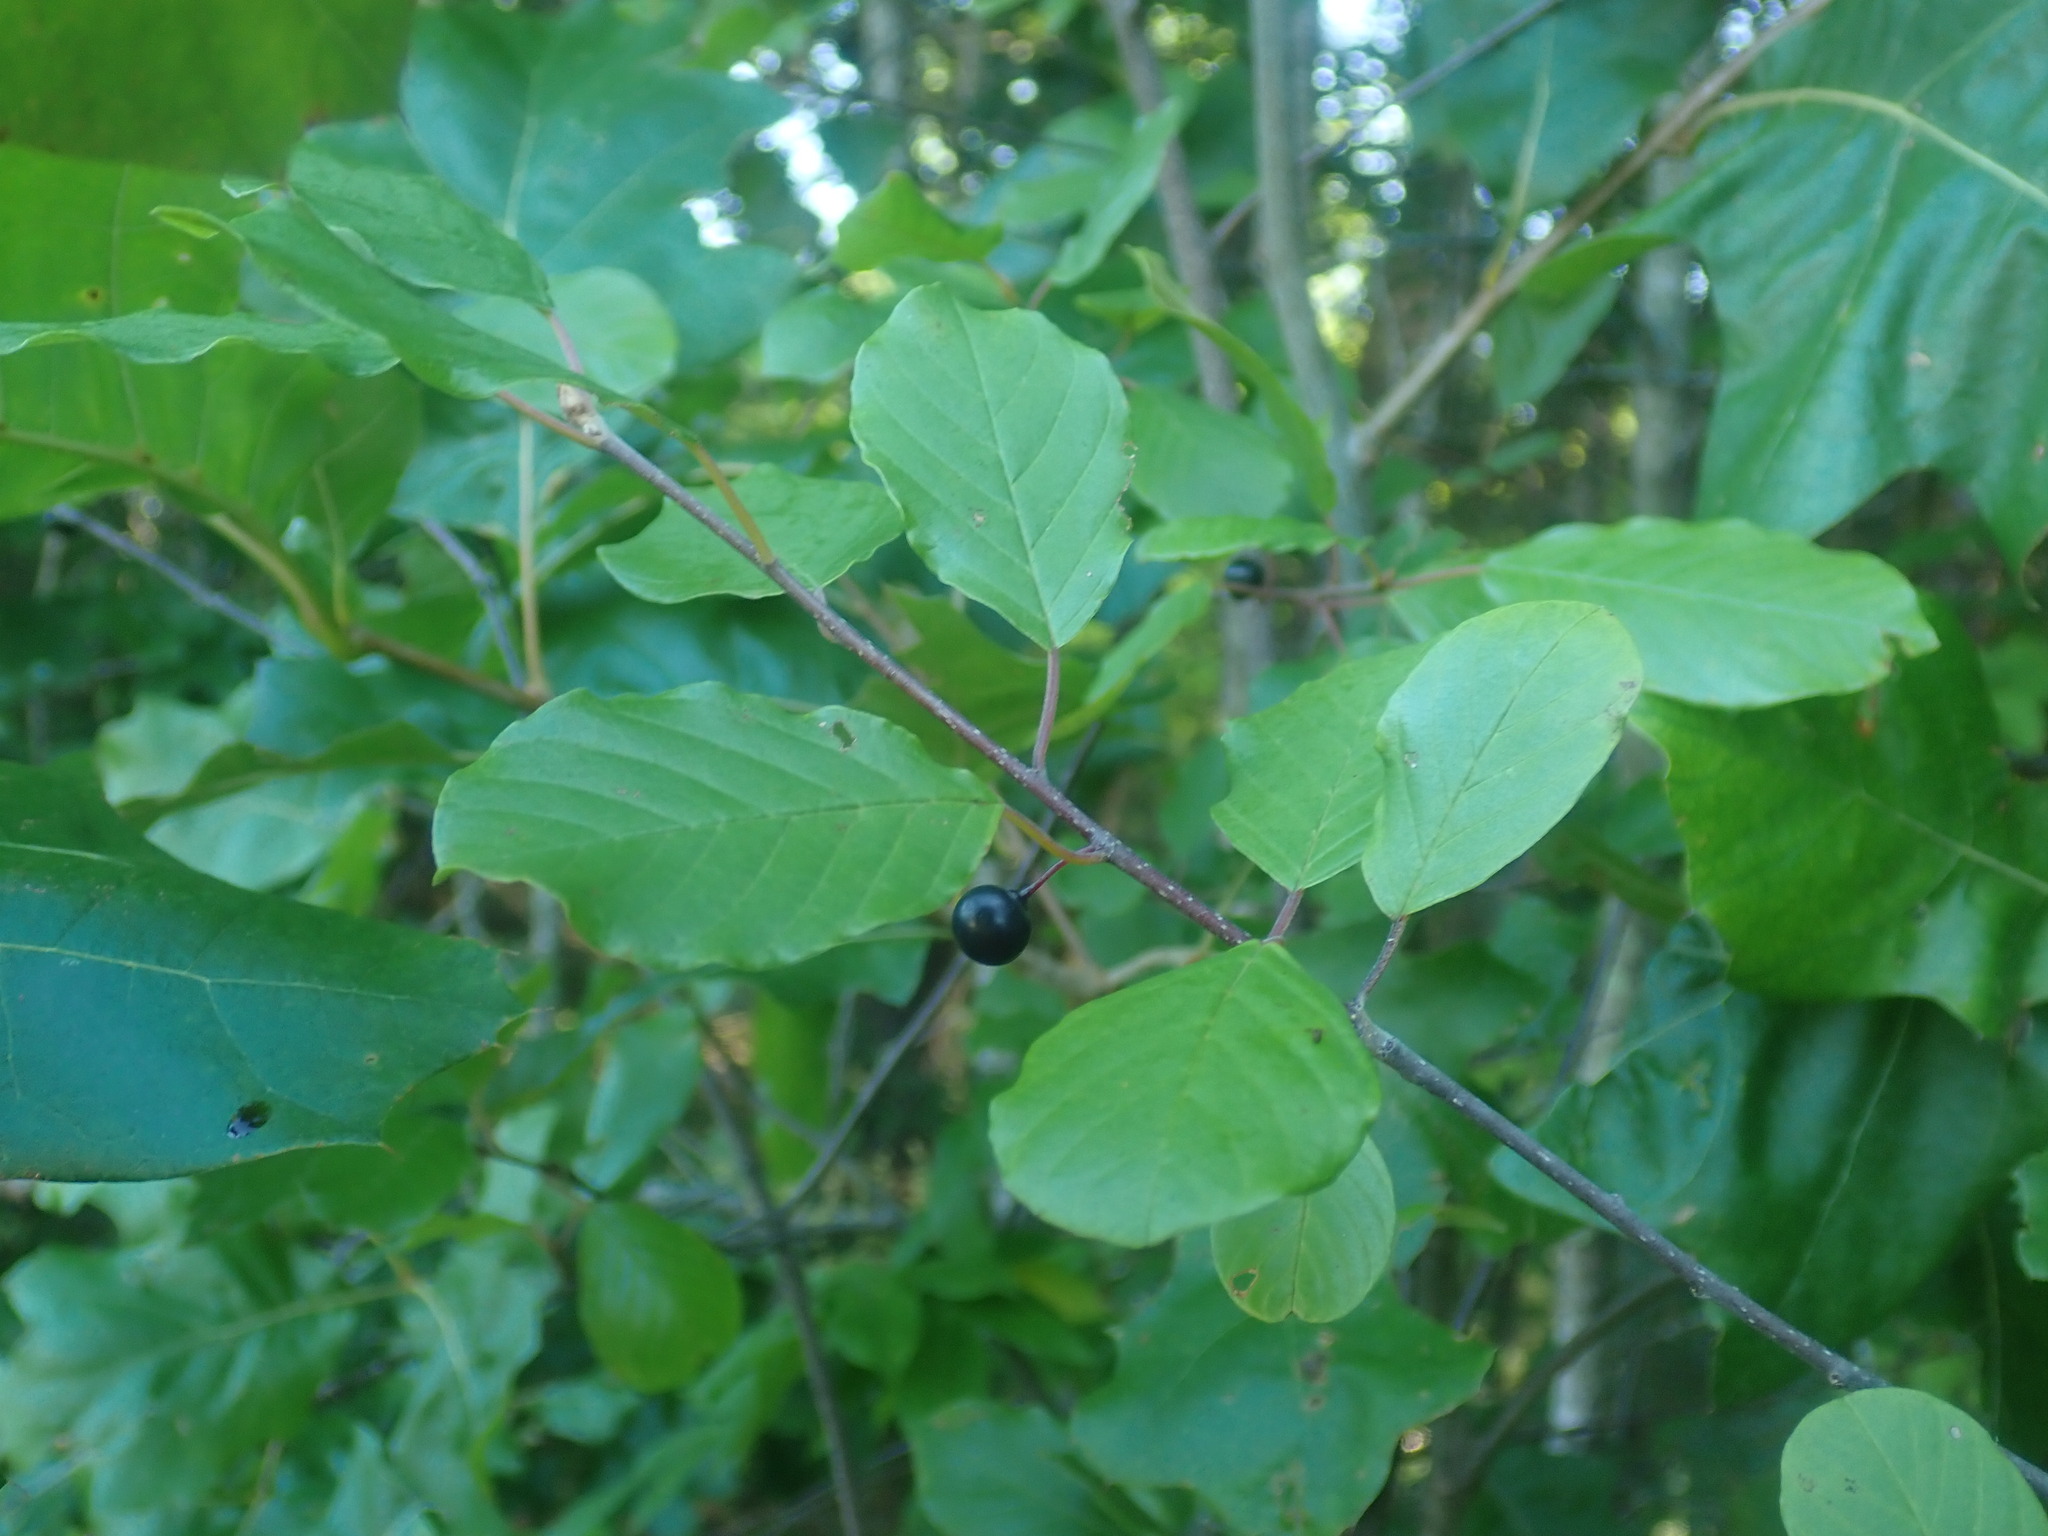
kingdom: Plantae
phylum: Tracheophyta
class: Magnoliopsida
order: Rosales
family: Rhamnaceae
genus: Frangula
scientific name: Frangula alnus
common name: Alder buckthorn
